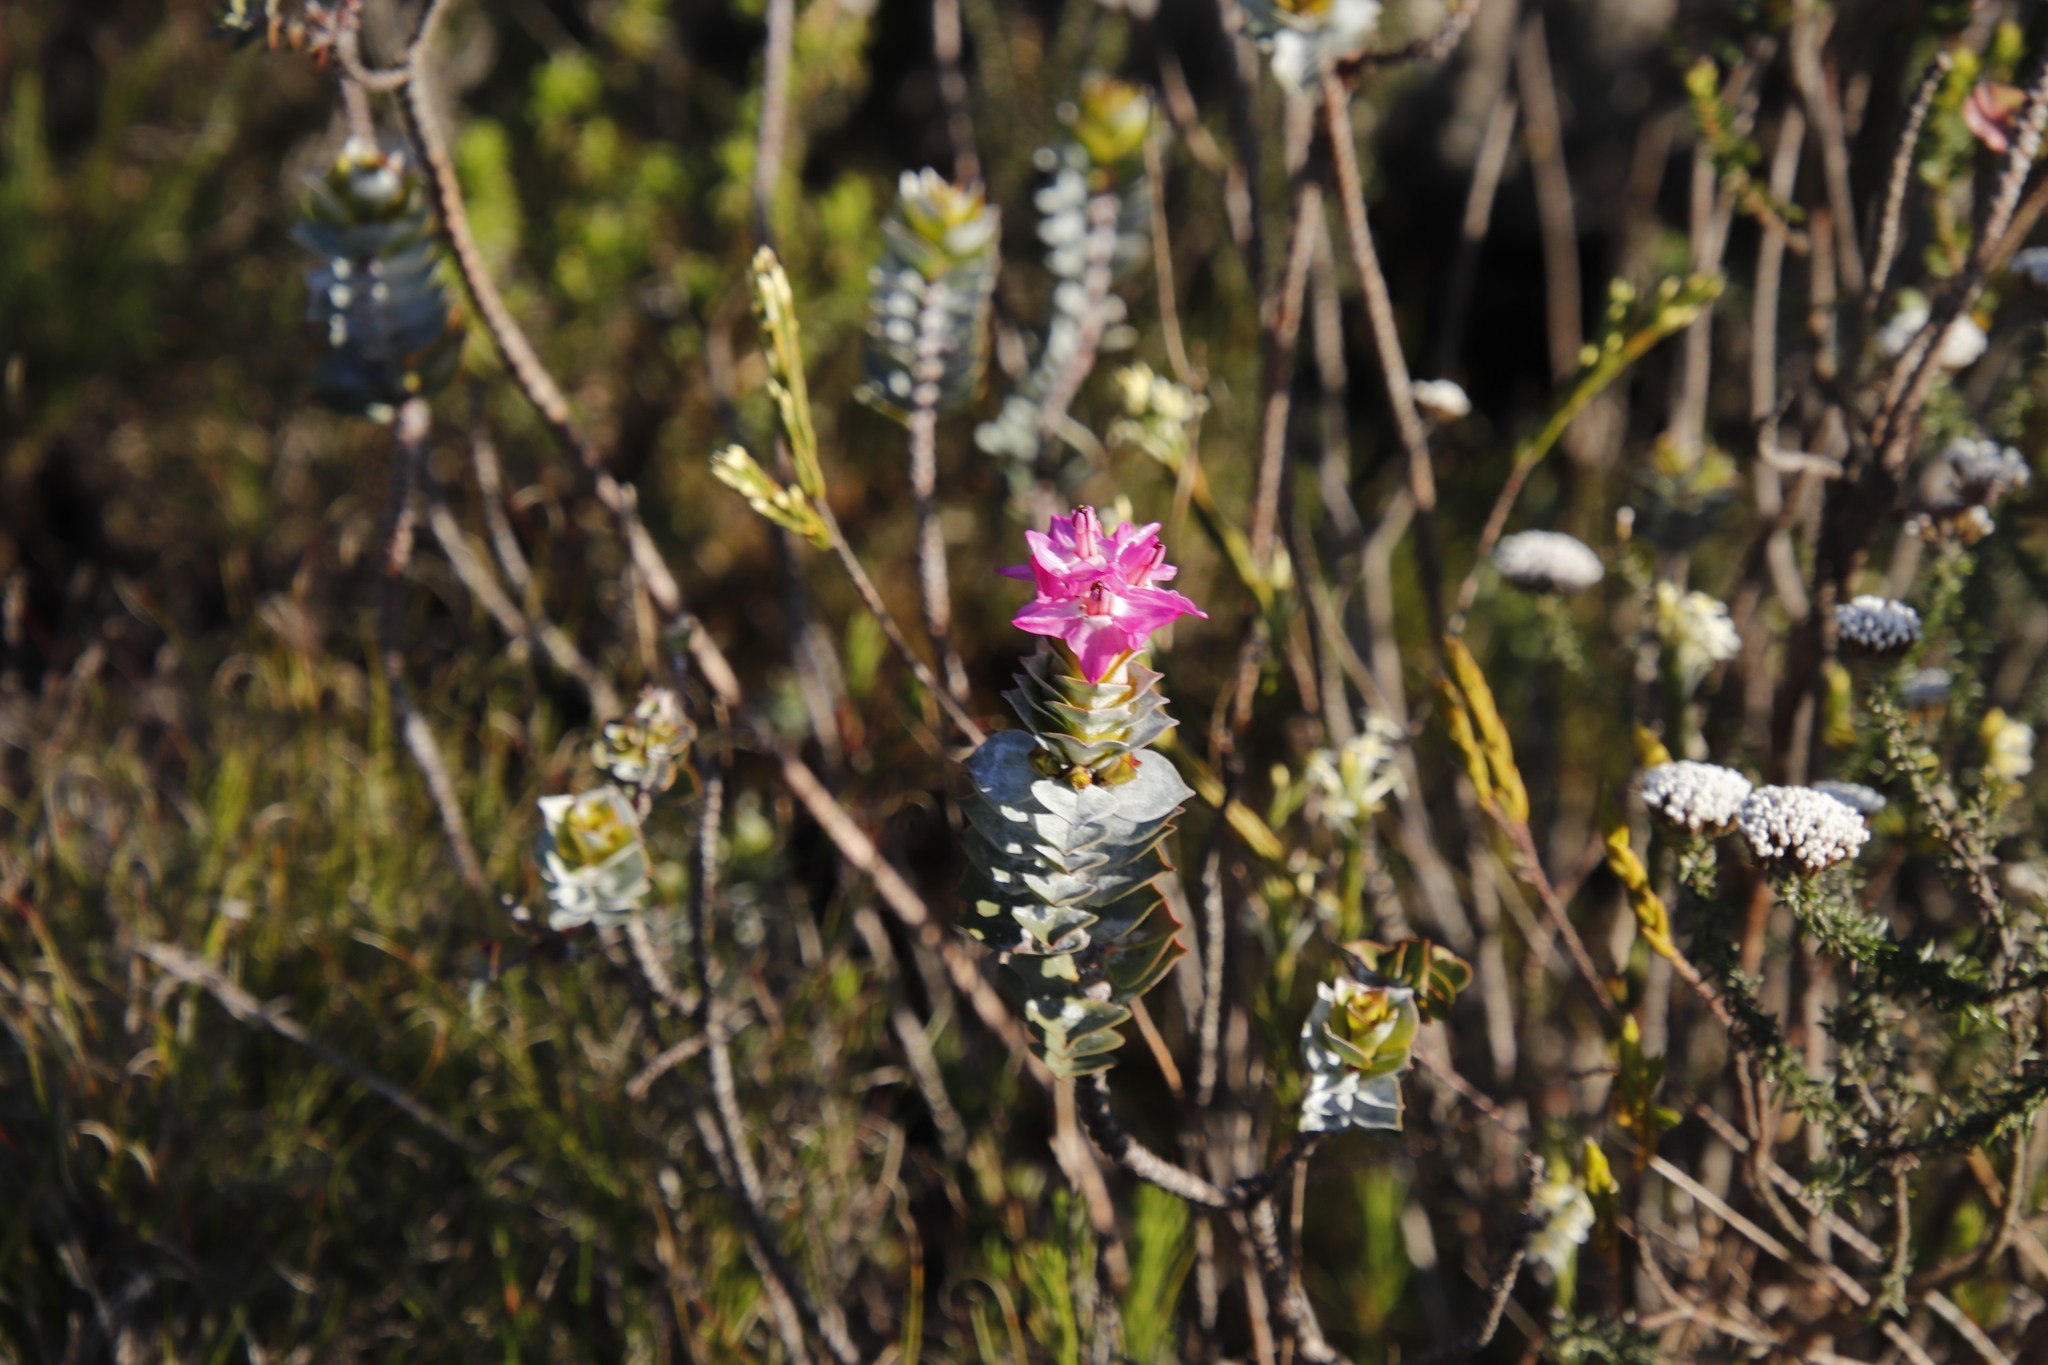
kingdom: Plantae
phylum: Tracheophyta
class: Magnoliopsida
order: Myrtales
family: Penaeaceae
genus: Saltera
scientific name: Saltera sarcocolla
